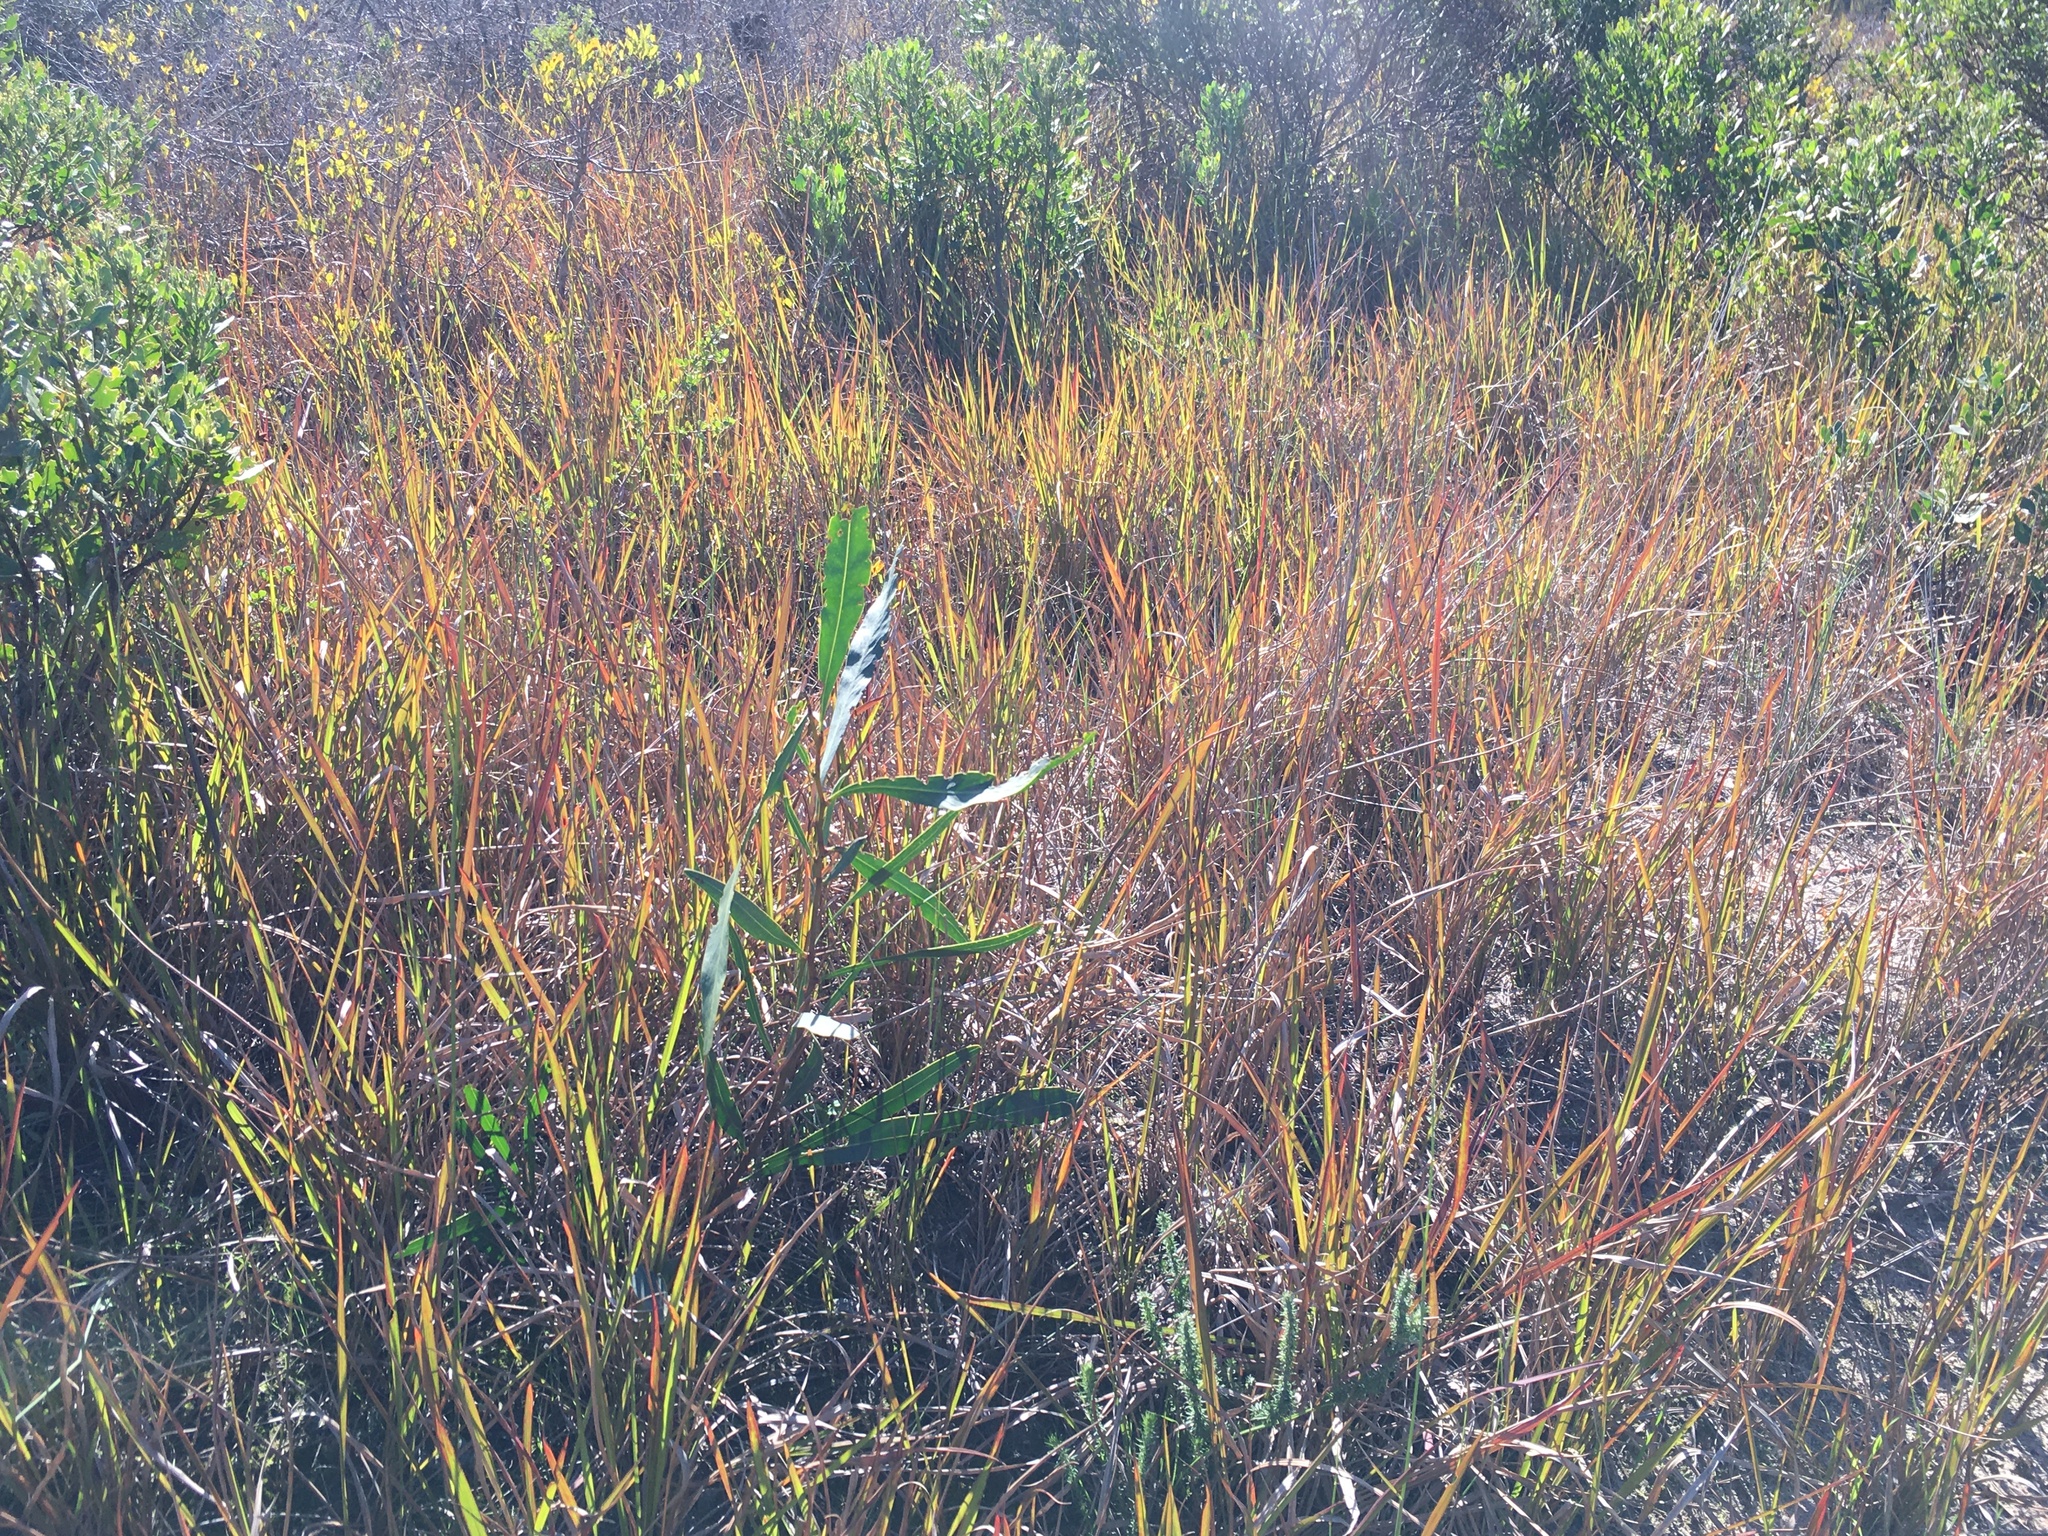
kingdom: Plantae
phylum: Tracheophyta
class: Magnoliopsida
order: Fabales
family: Fabaceae
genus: Acacia
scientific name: Acacia saligna
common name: Orange wattle
